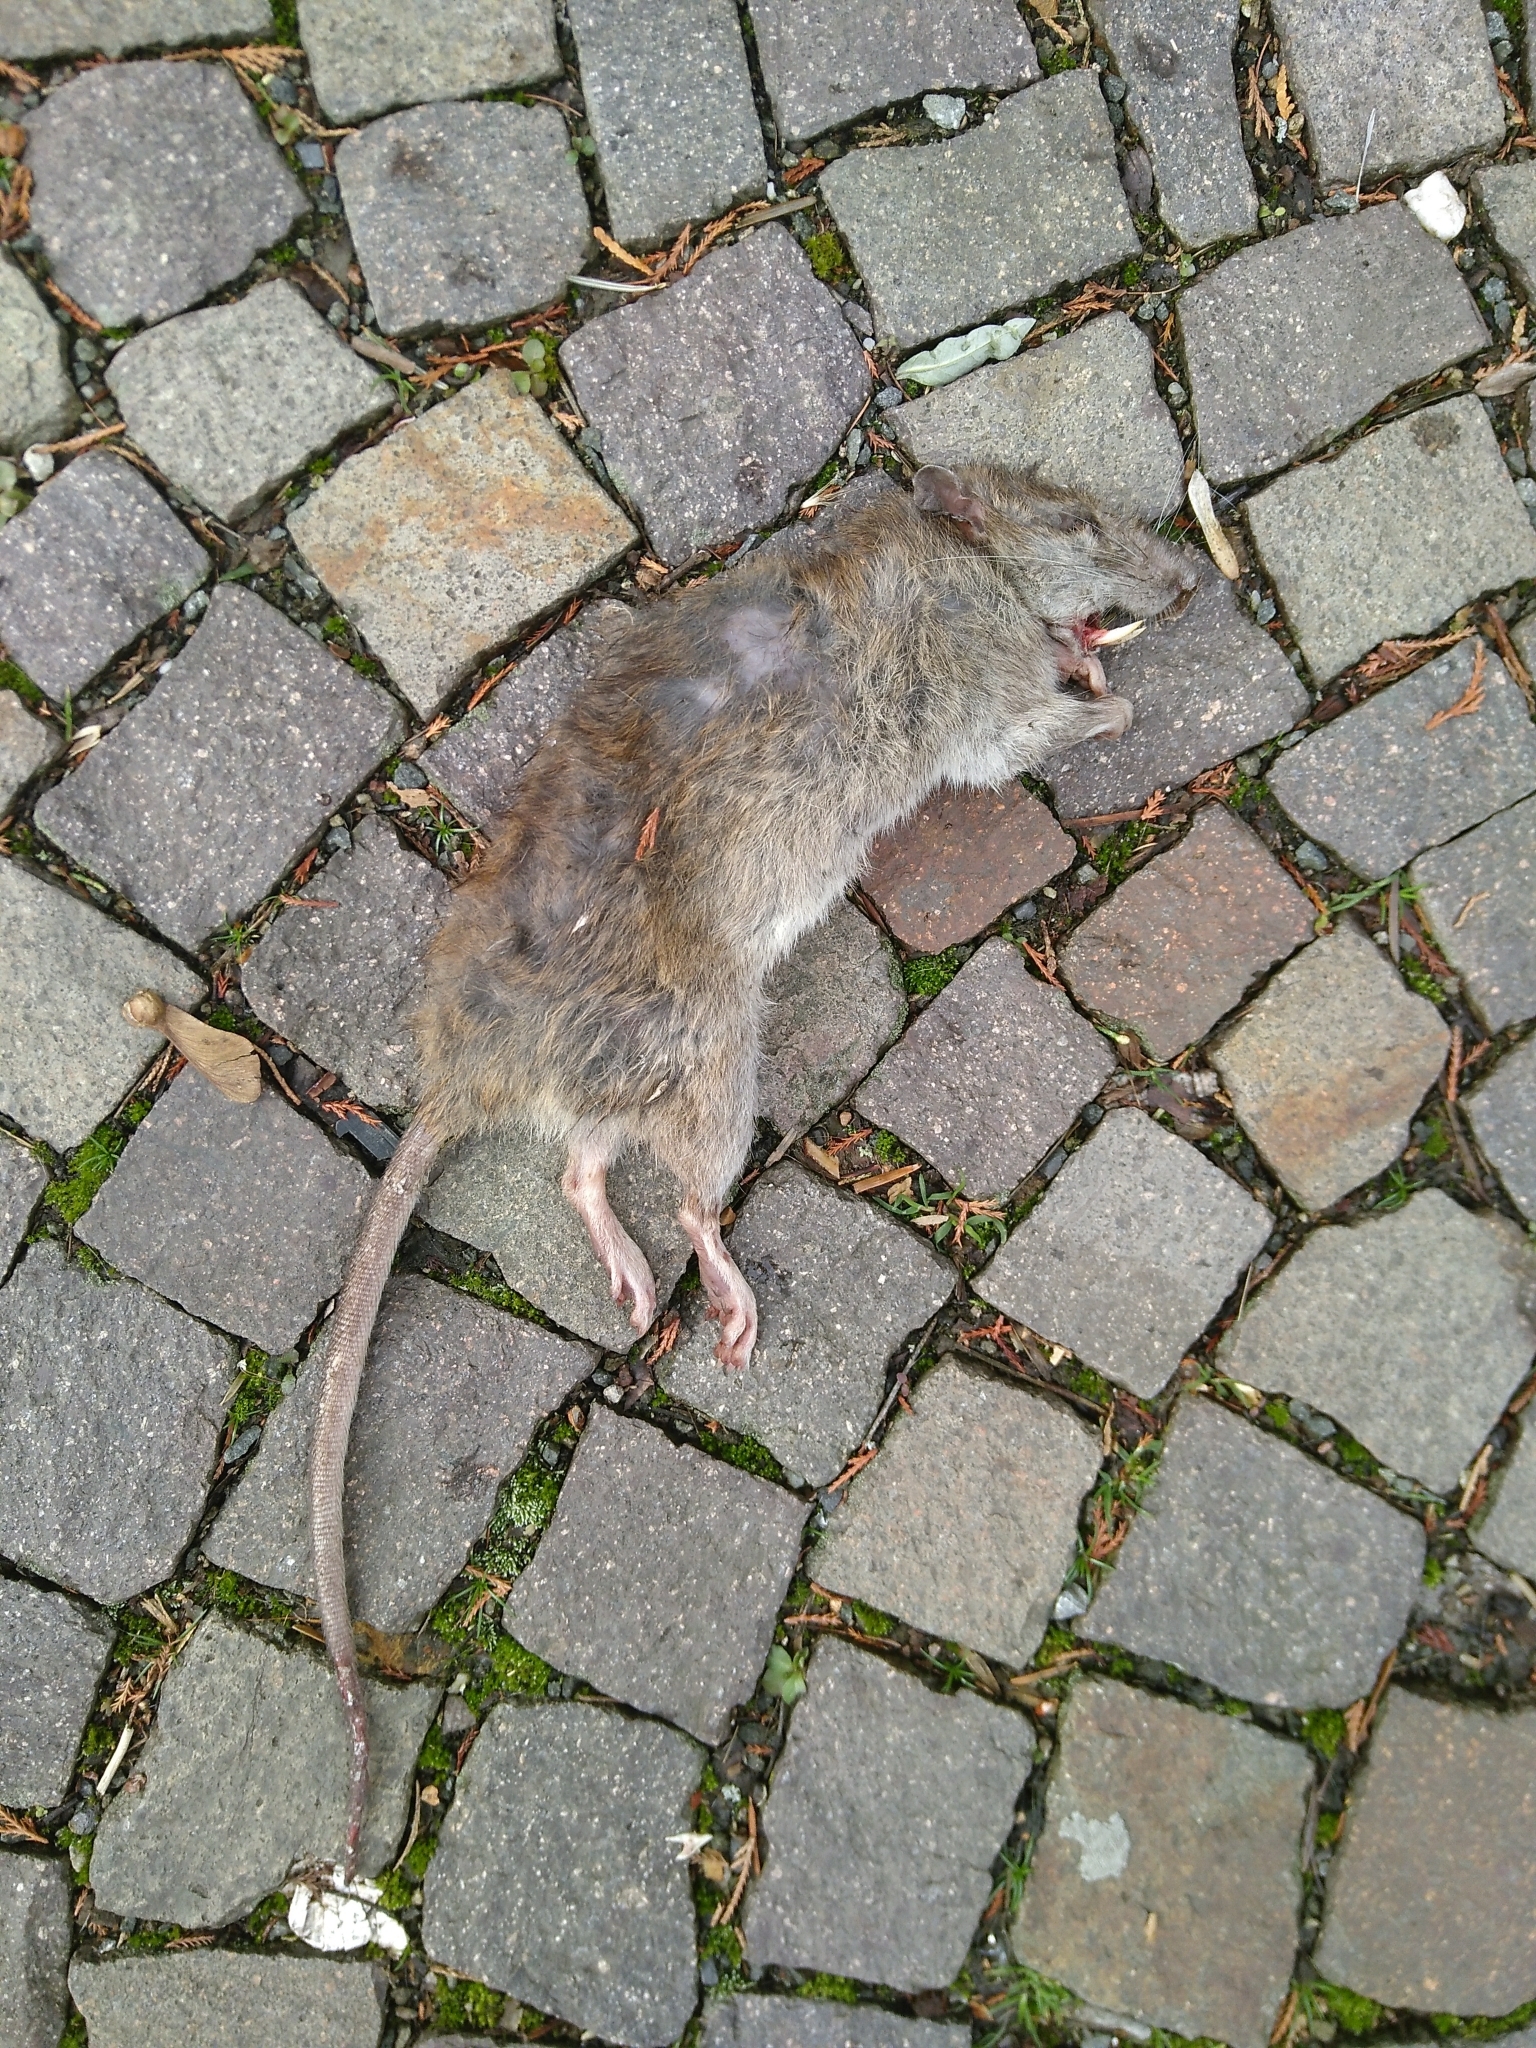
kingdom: Animalia
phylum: Chordata
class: Mammalia
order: Rodentia
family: Muridae
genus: Rattus
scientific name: Rattus norvegicus
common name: Brown rat
